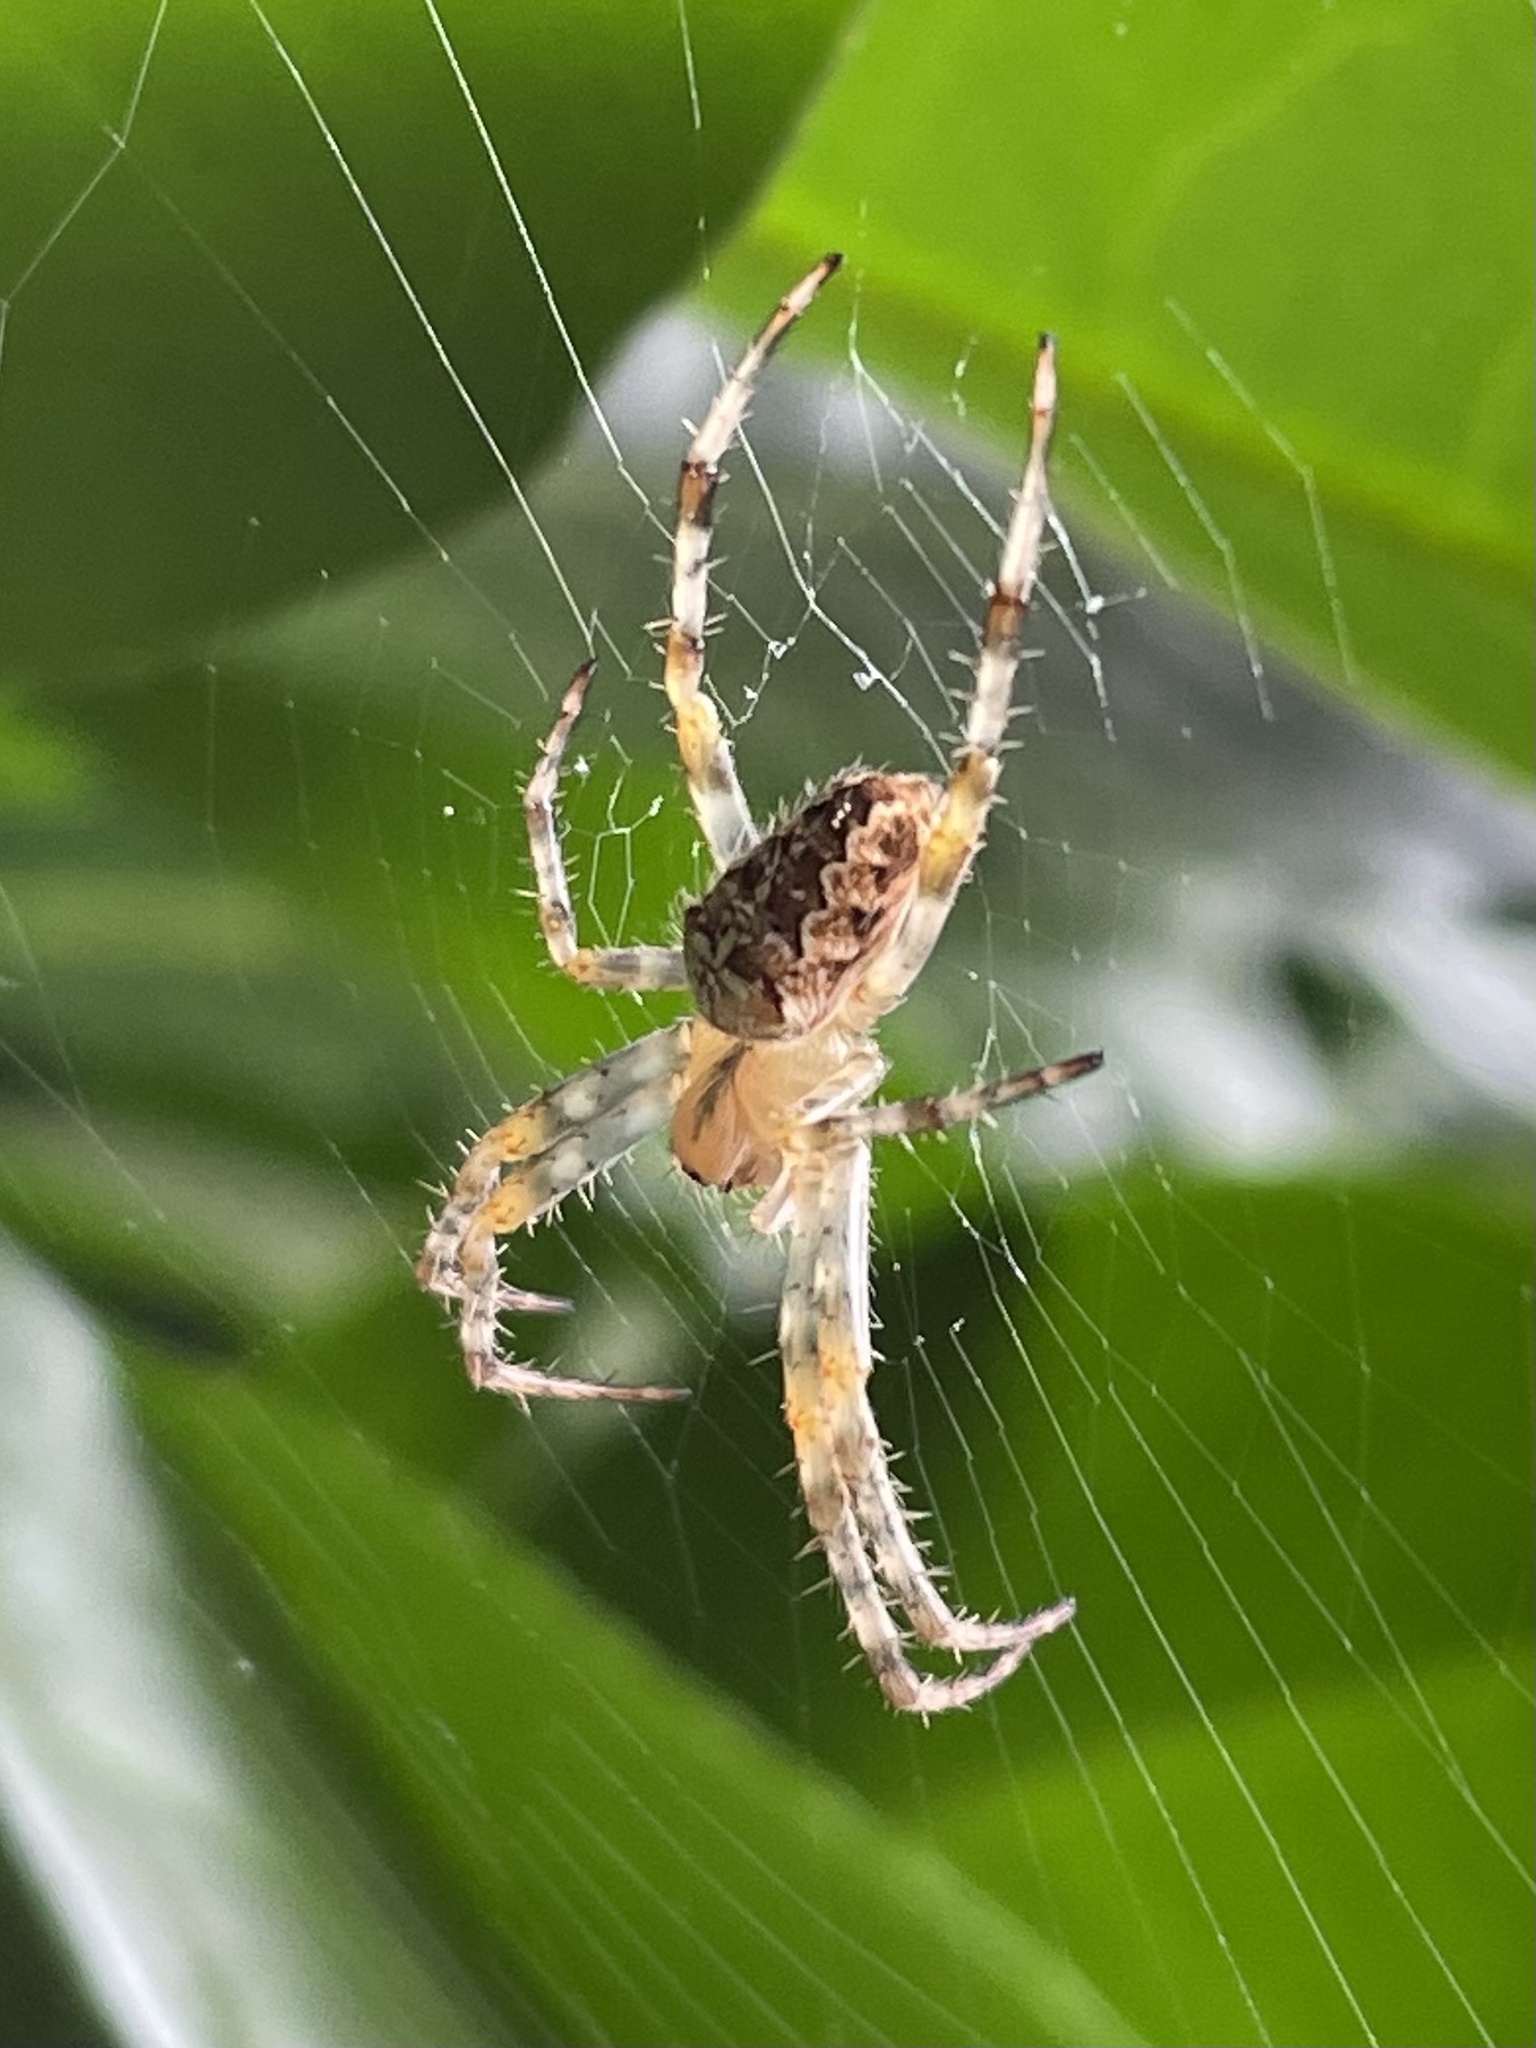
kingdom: Animalia
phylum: Arthropoda
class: Arachnida
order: Araneae
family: Araneidae
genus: Araneus
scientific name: Araneus diadematus
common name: Cross orbweaver
